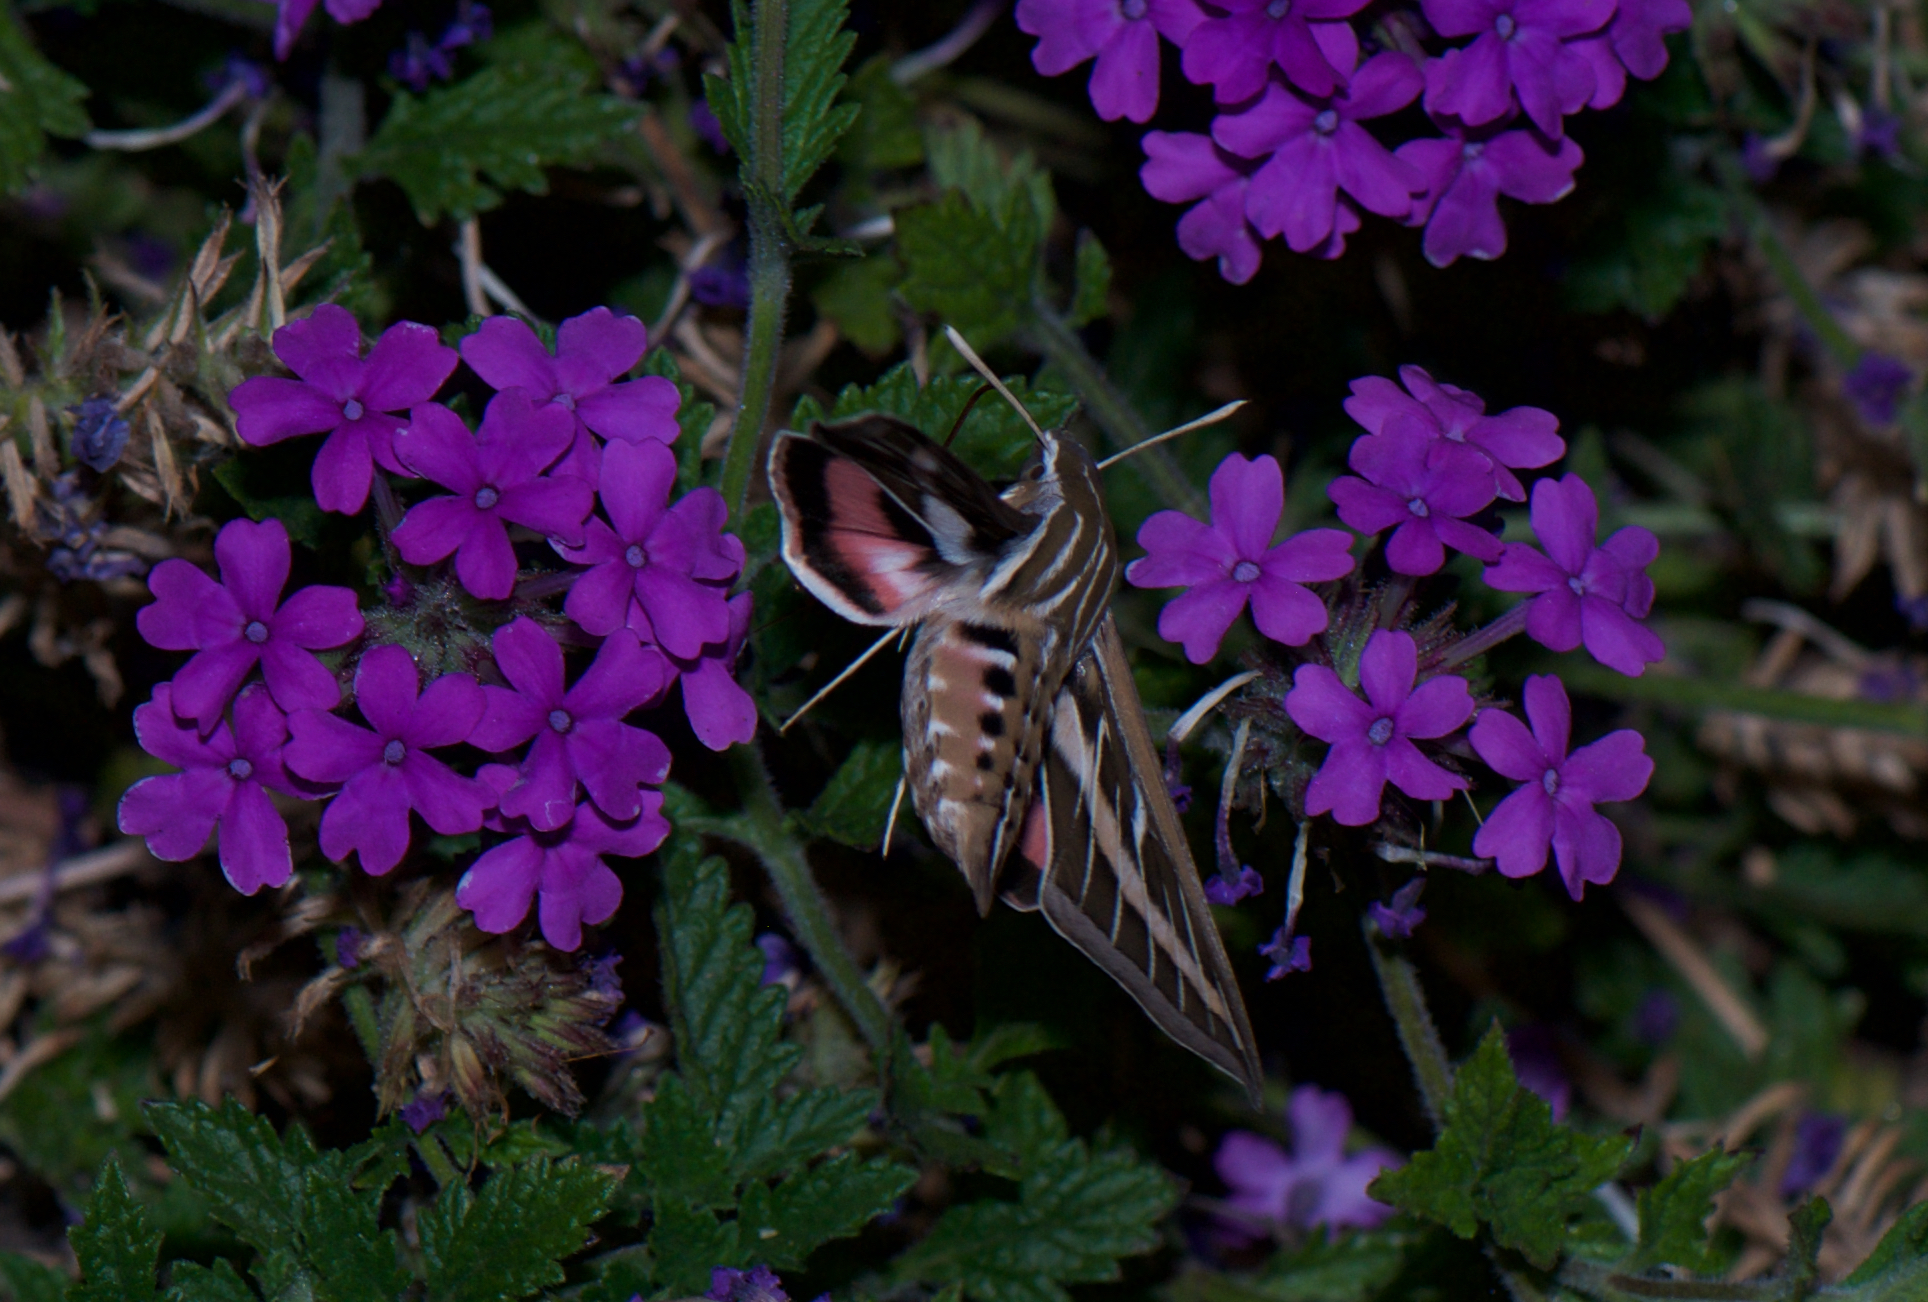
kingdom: Animalia
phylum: Arthropoda
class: Insecta
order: Lepidoptera
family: Sphingidae
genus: Hyles
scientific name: Hyles lineata
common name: White-lined sphinx
